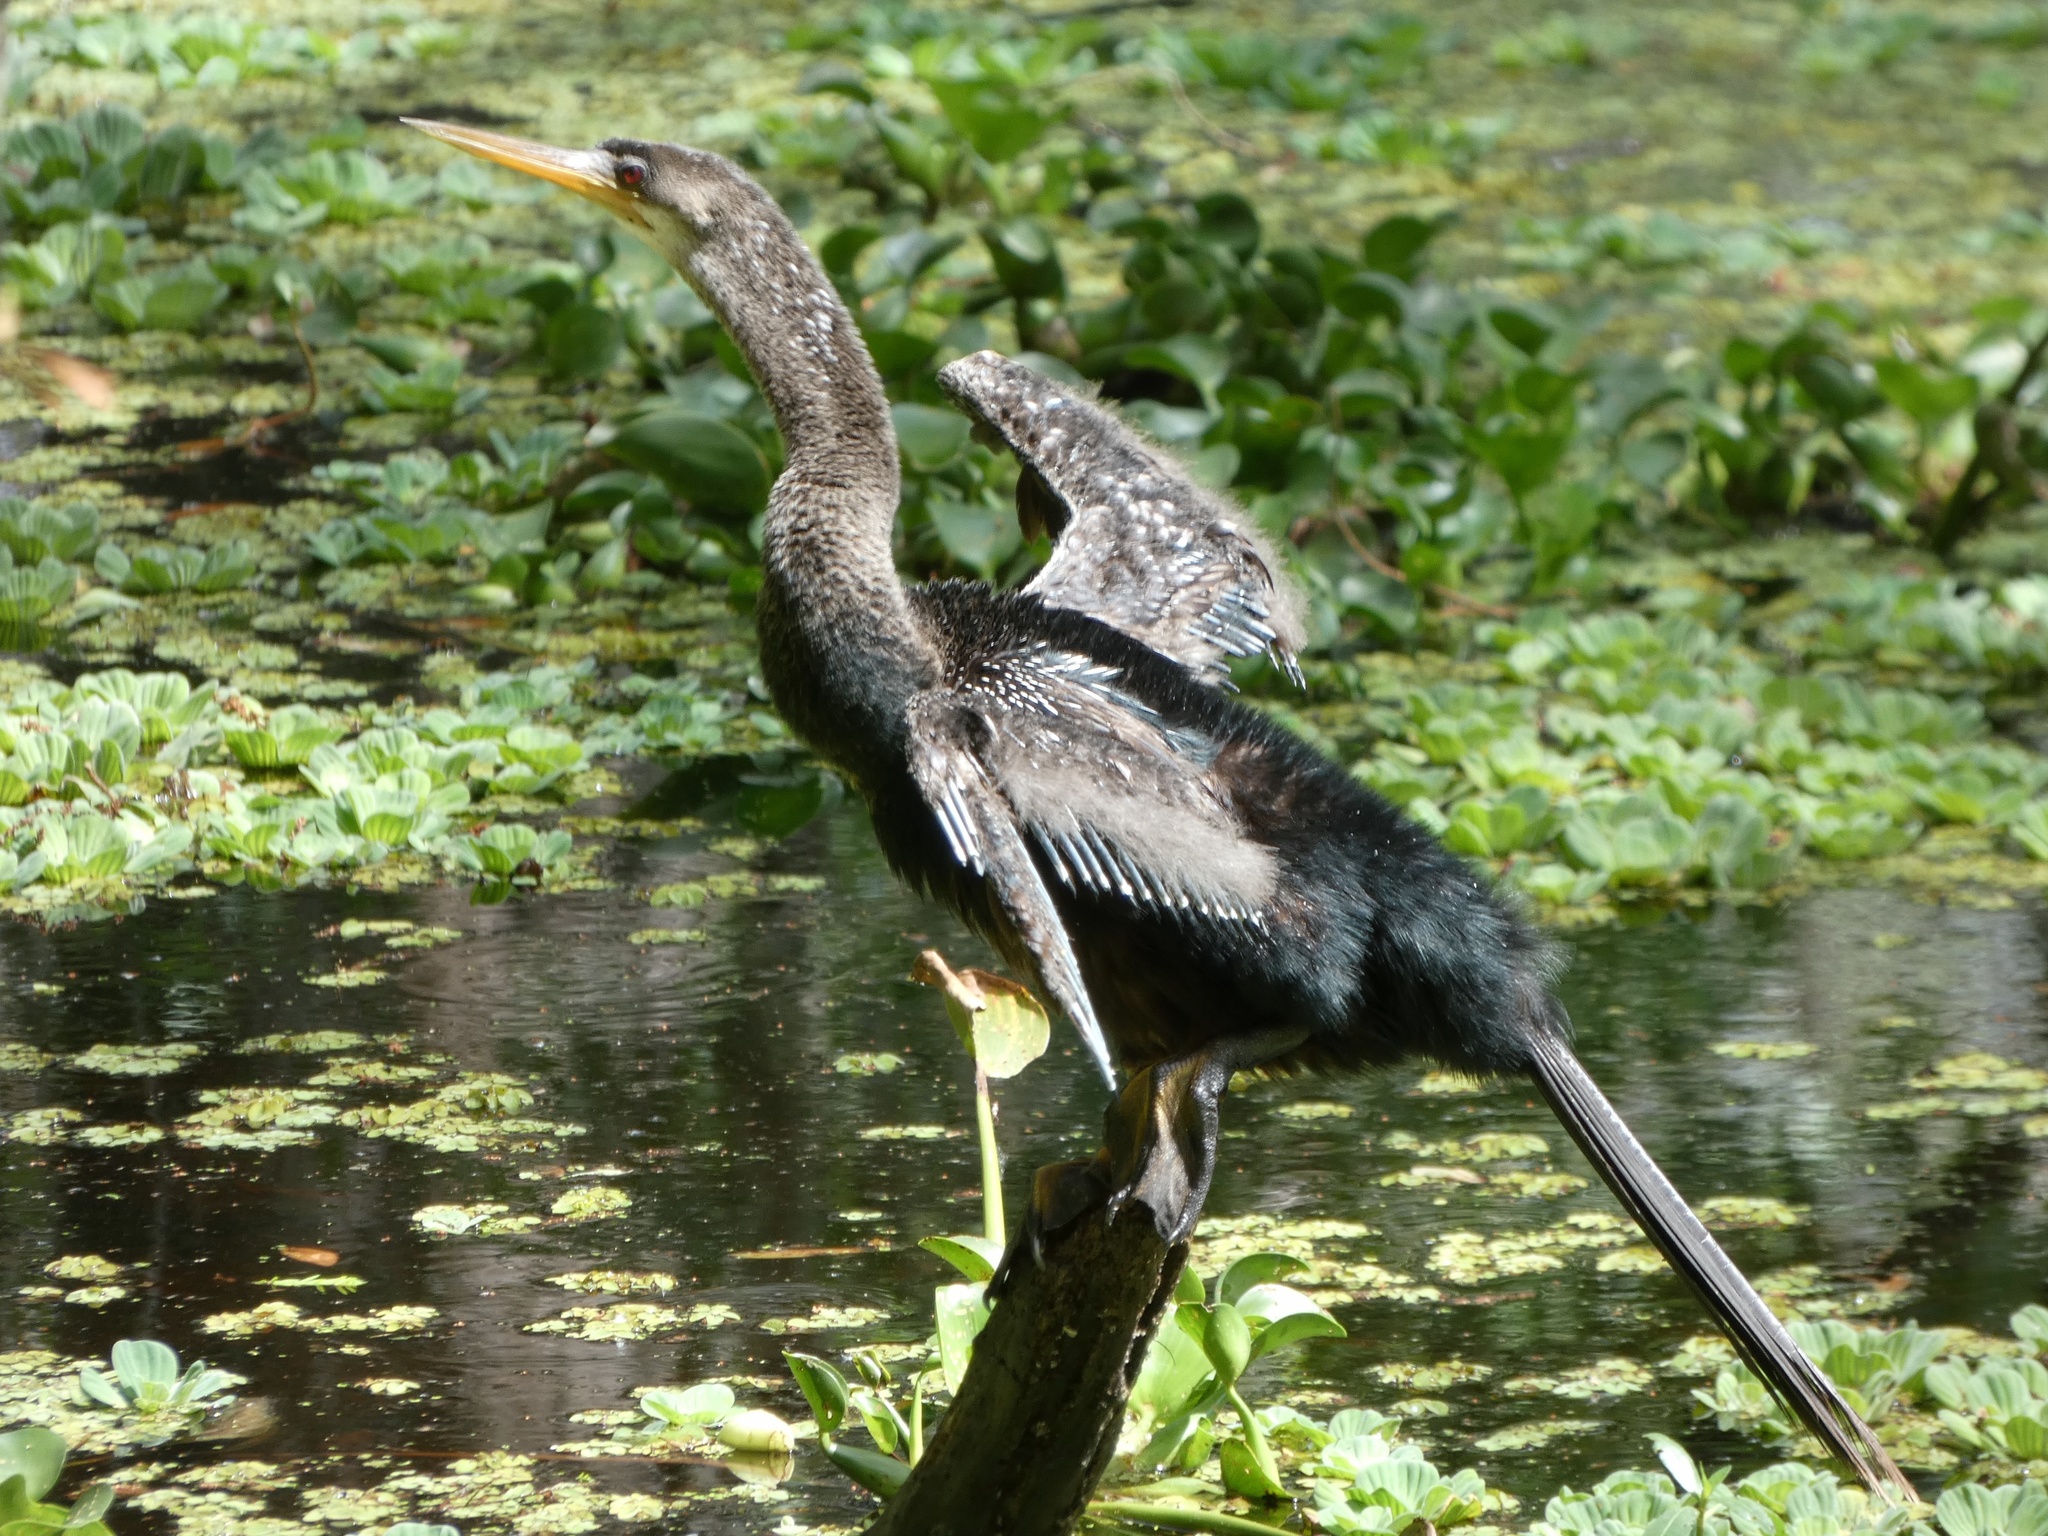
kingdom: Animalia
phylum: Chordata
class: Aves
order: Suliformes
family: Anhingidae
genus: Anhinga
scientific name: Anhinga anhinga
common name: Anhinga
